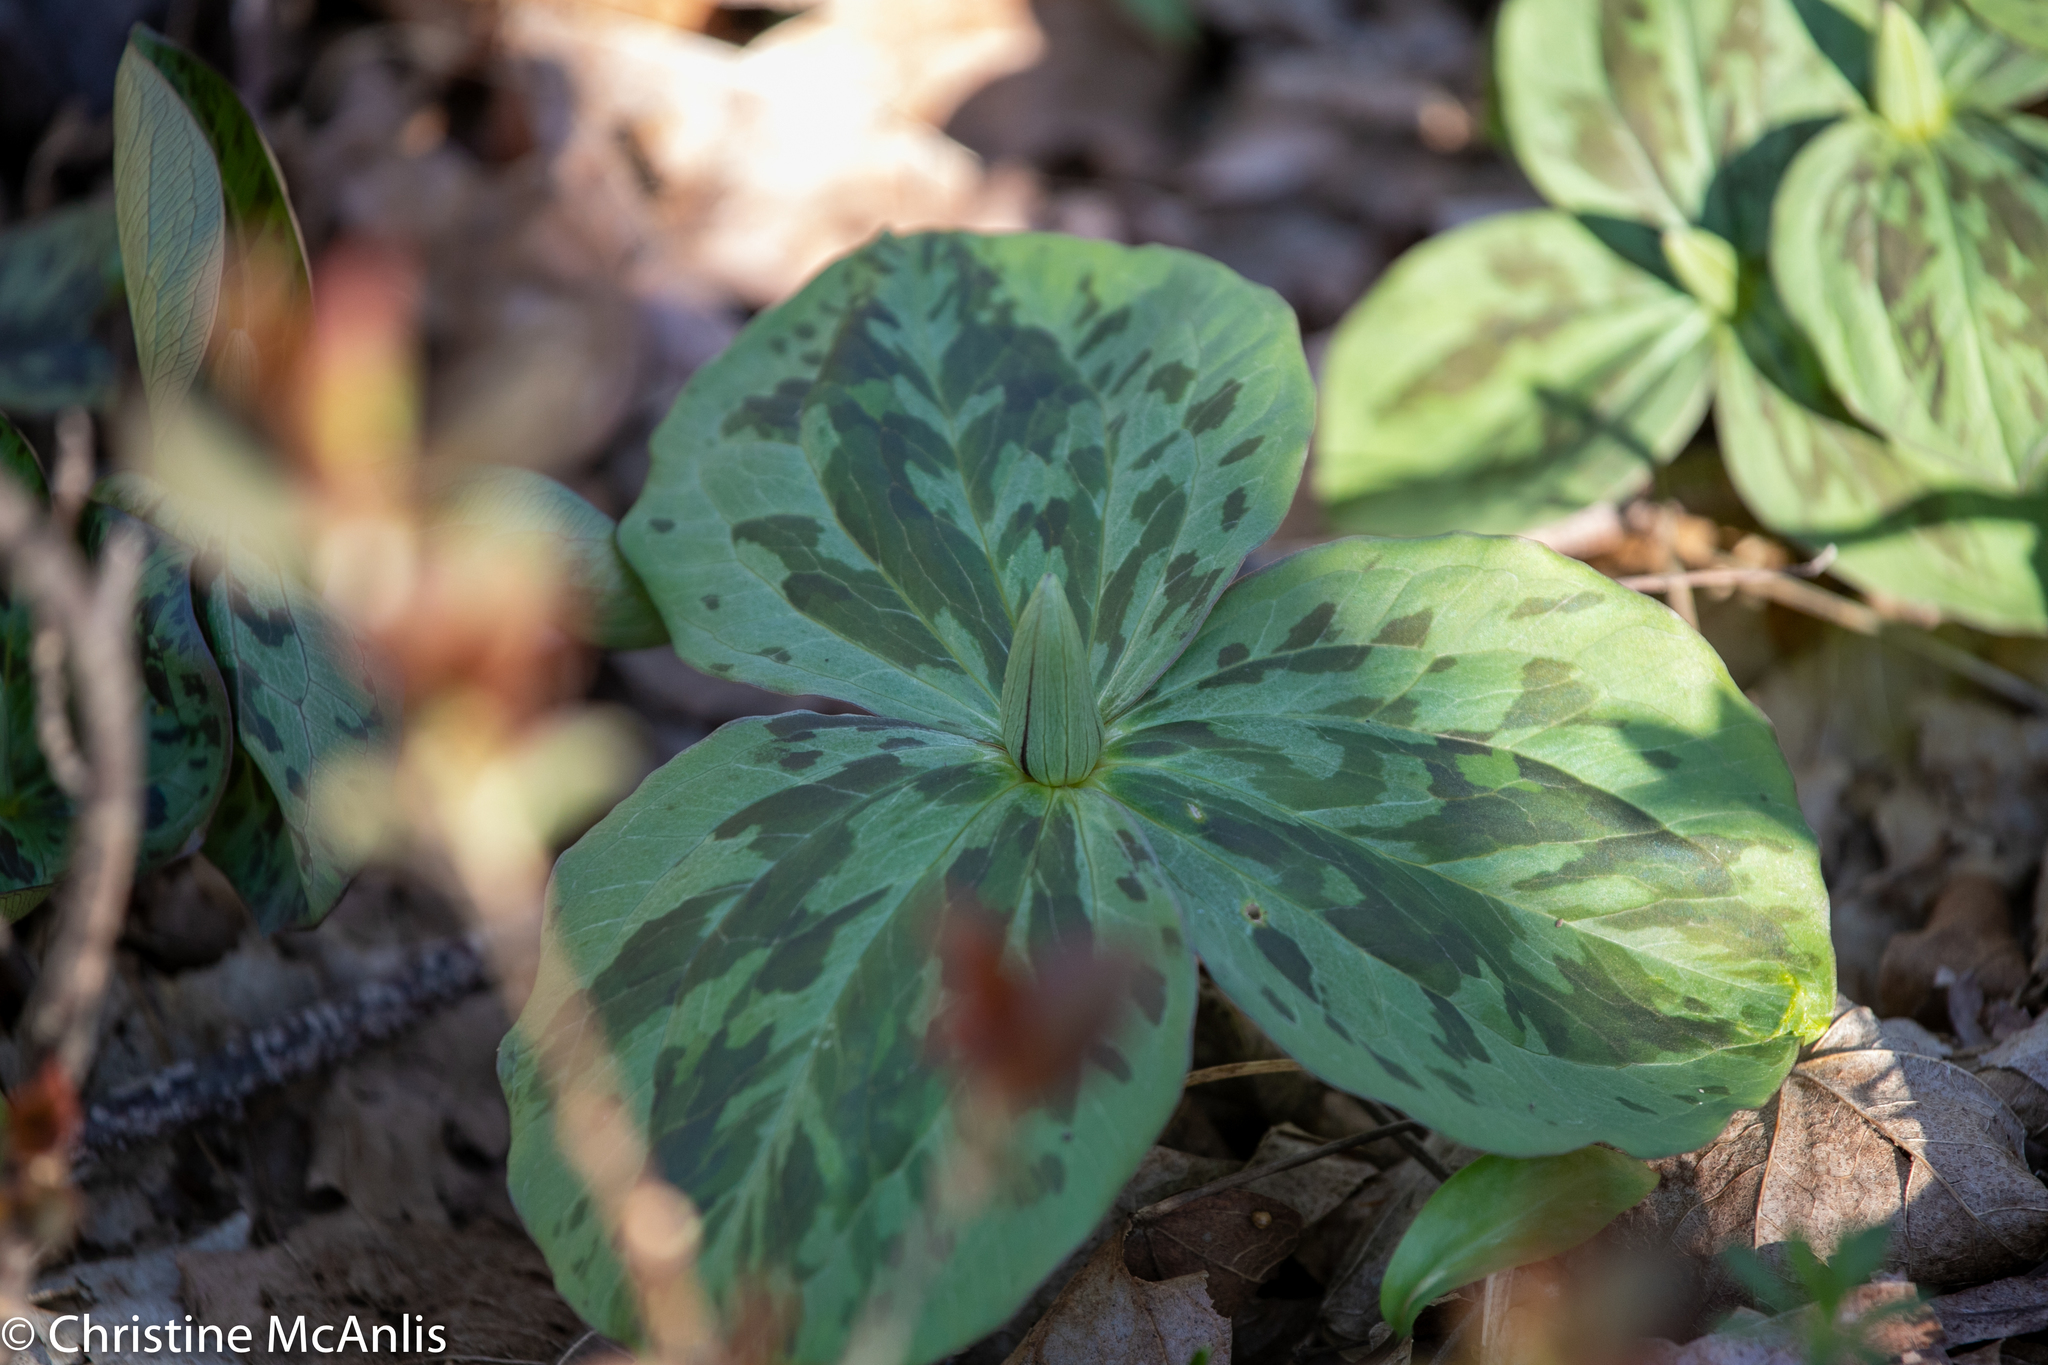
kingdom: Plantae
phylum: Tracheophyta
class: Liliopsida
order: Liliales
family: Melanthiaceae
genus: Trillium
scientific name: Trillium sessile
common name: Sessile trillium
